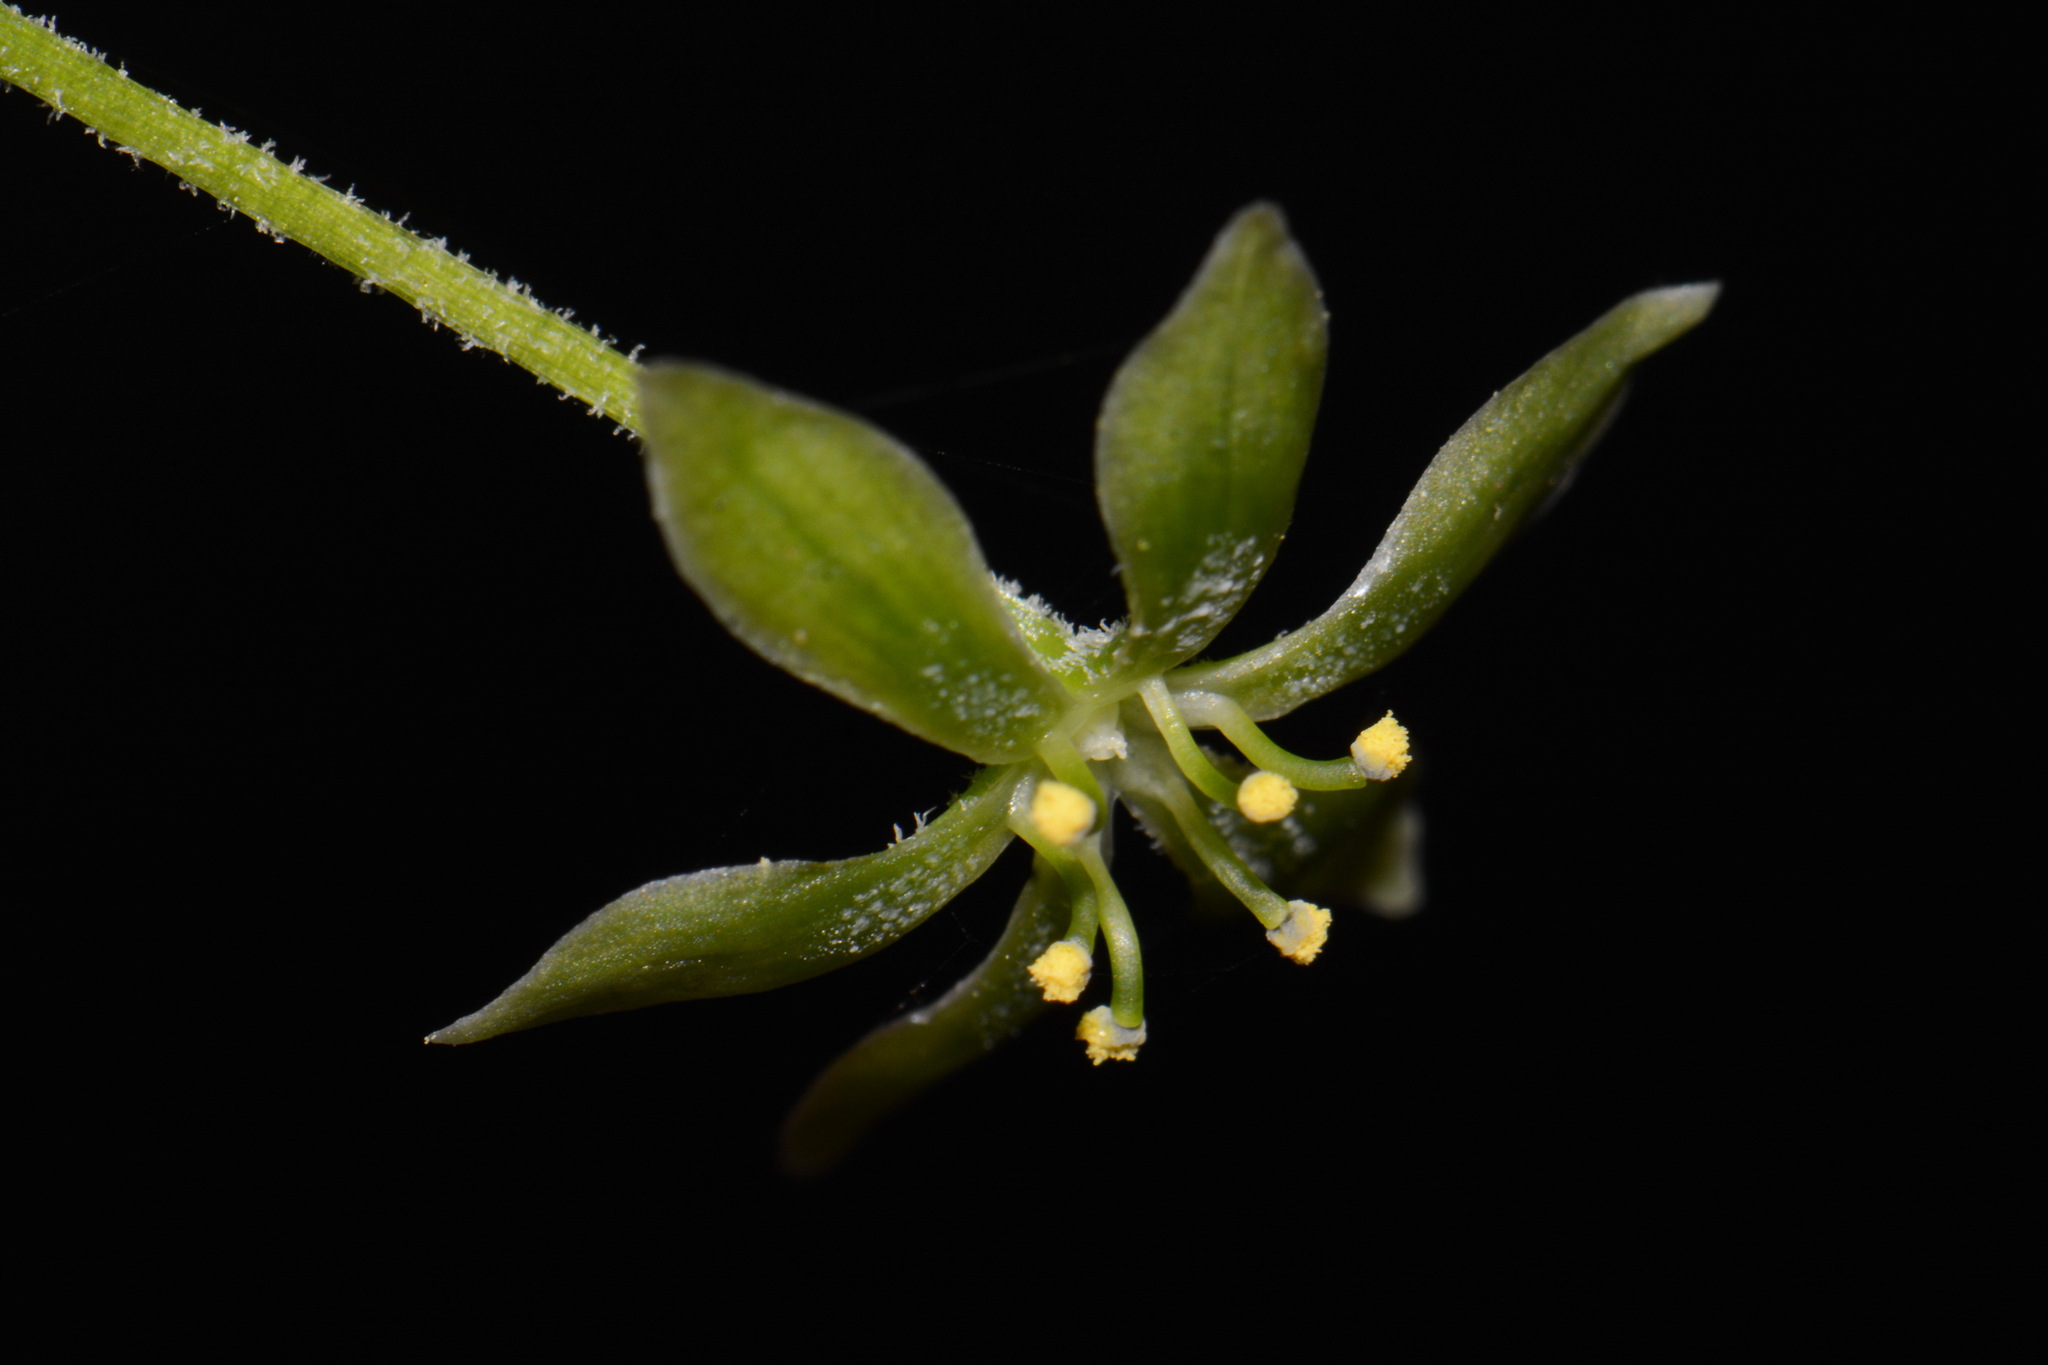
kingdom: Plantae
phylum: Tracheophyta
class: Liliopsida
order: Liliales
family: Melanthiaceae
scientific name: Melanthiaceae
